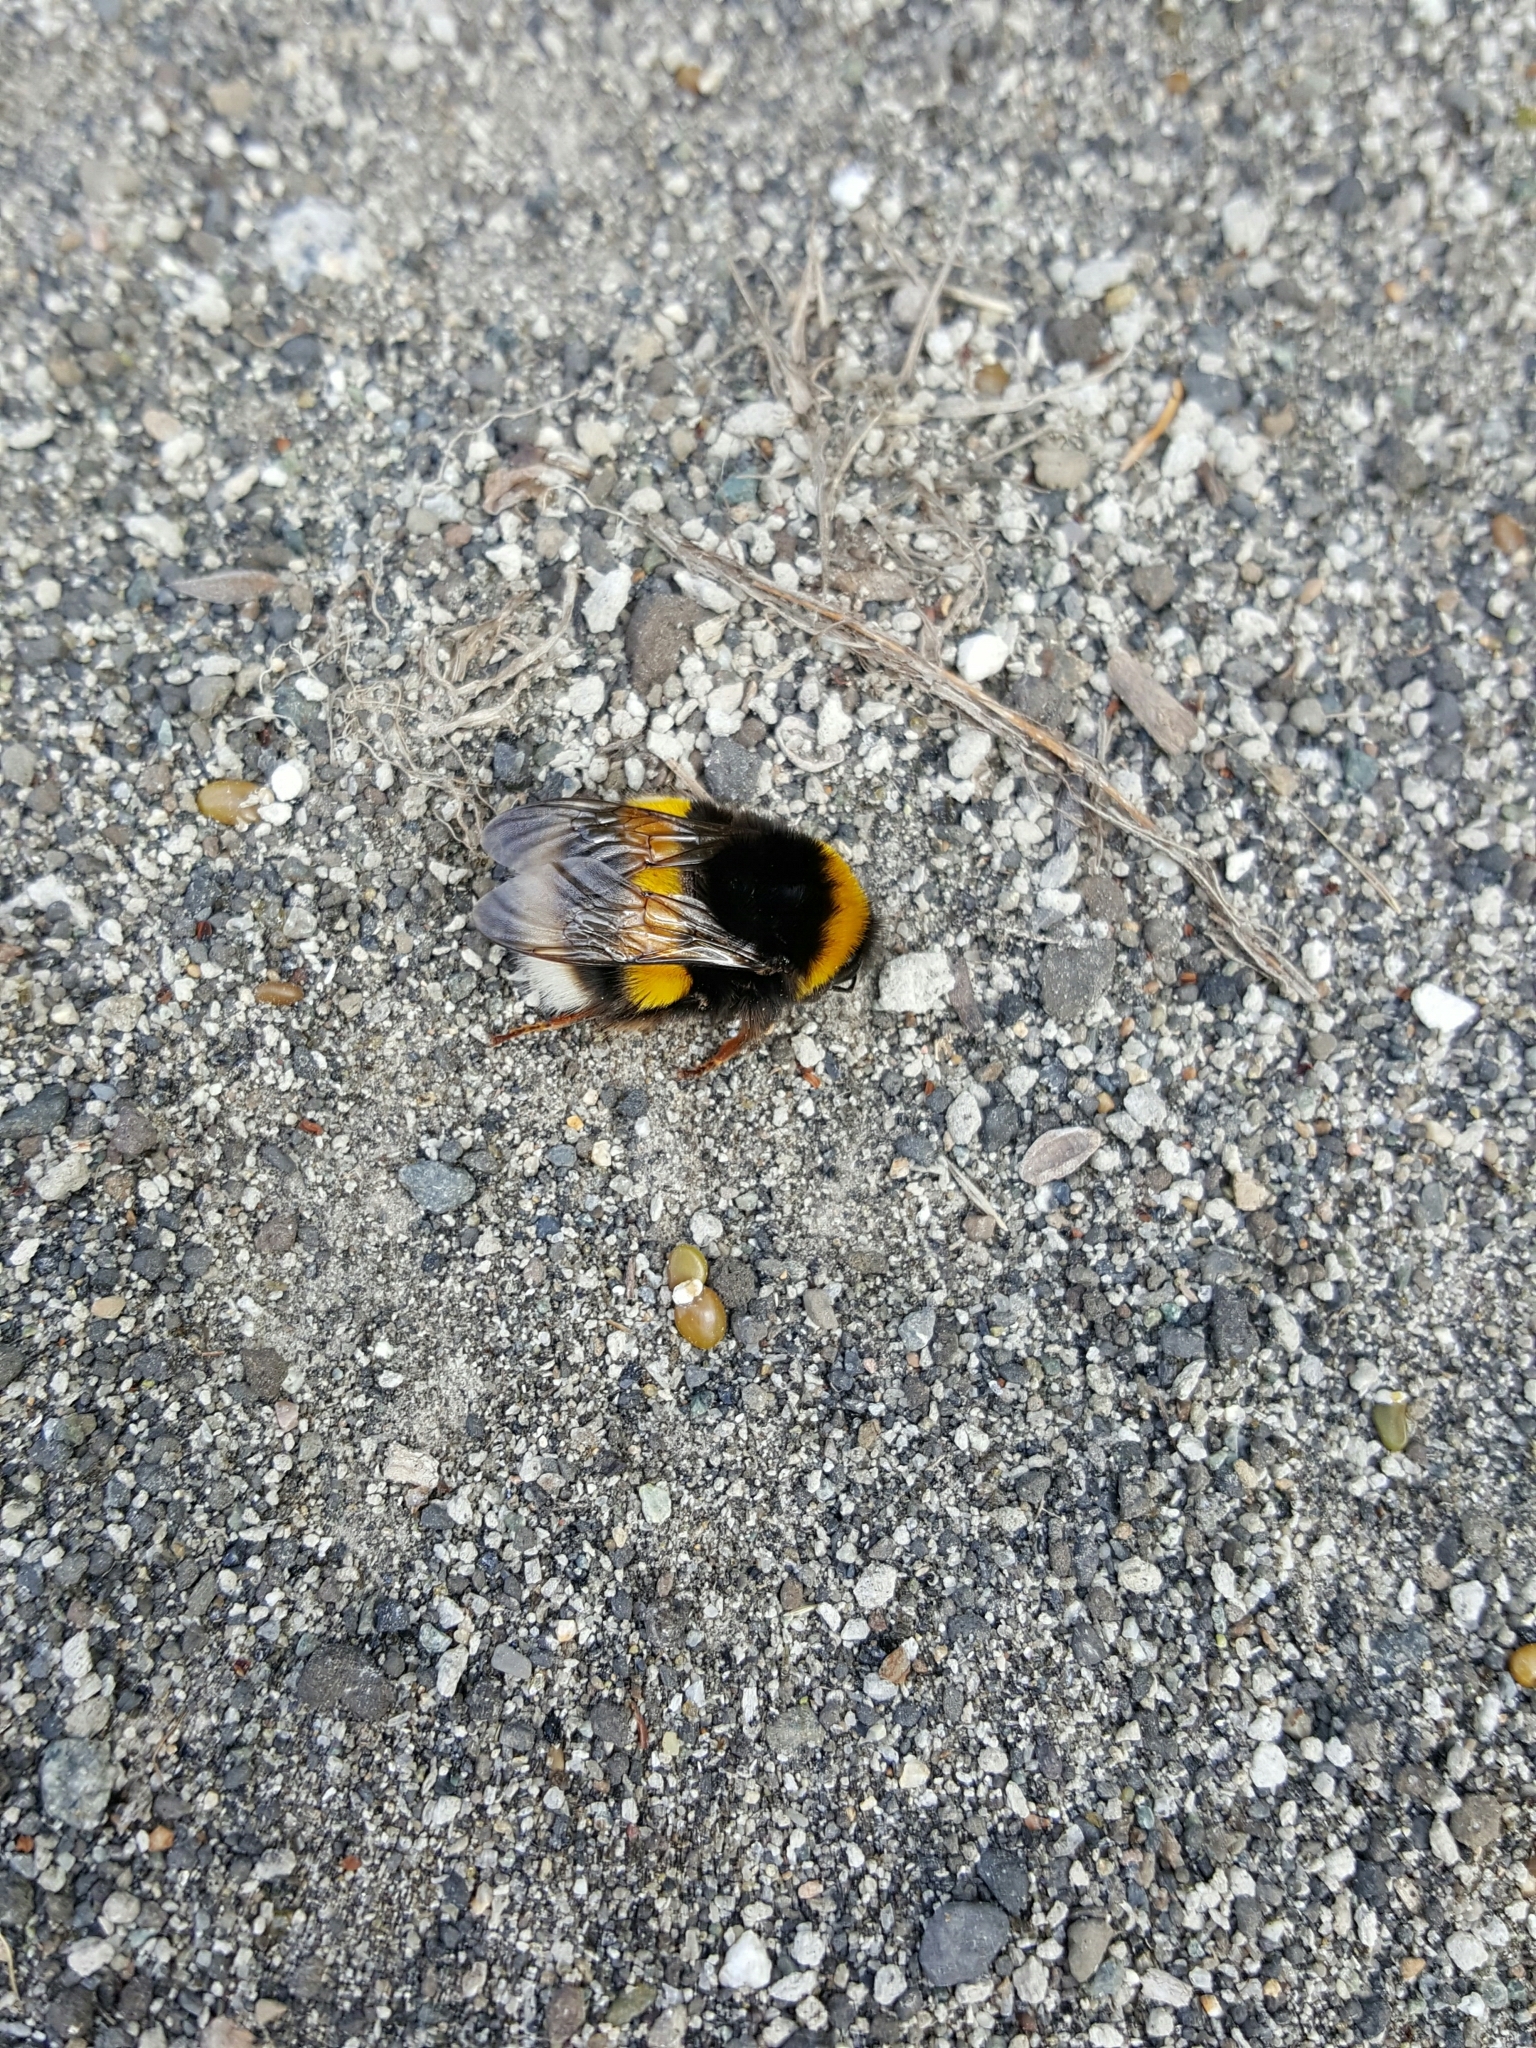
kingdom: Animalia
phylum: Arthropoda
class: Insecta
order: Hymenoptera
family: Apidae
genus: Bombus
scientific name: Bombus terrestris
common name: Buff-tailed bumblebee
